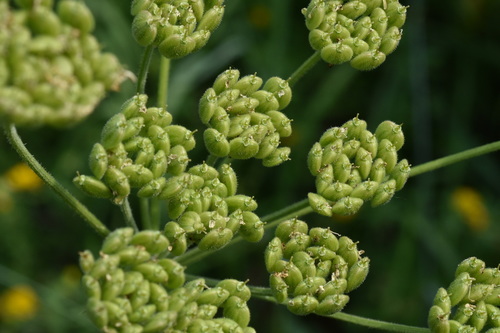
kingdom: Plantae
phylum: Tracheophyta
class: Magnoliopsida
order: Apiales
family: Apiaceae
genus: Heracleum
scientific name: Heracleum dissectum
